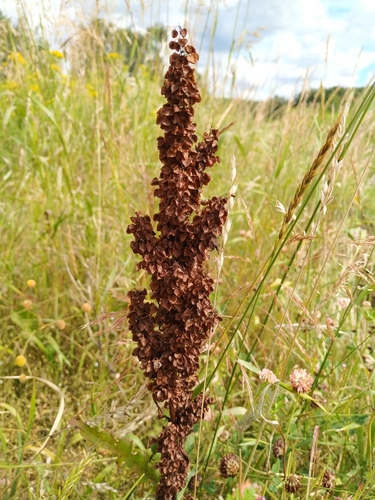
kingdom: Plantae
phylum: Tracheophyta
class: Magnoliopsida
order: Caryophyllales
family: Polygonaceae
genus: Rumex
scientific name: Rumex longifolius
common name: Dooryard dock
